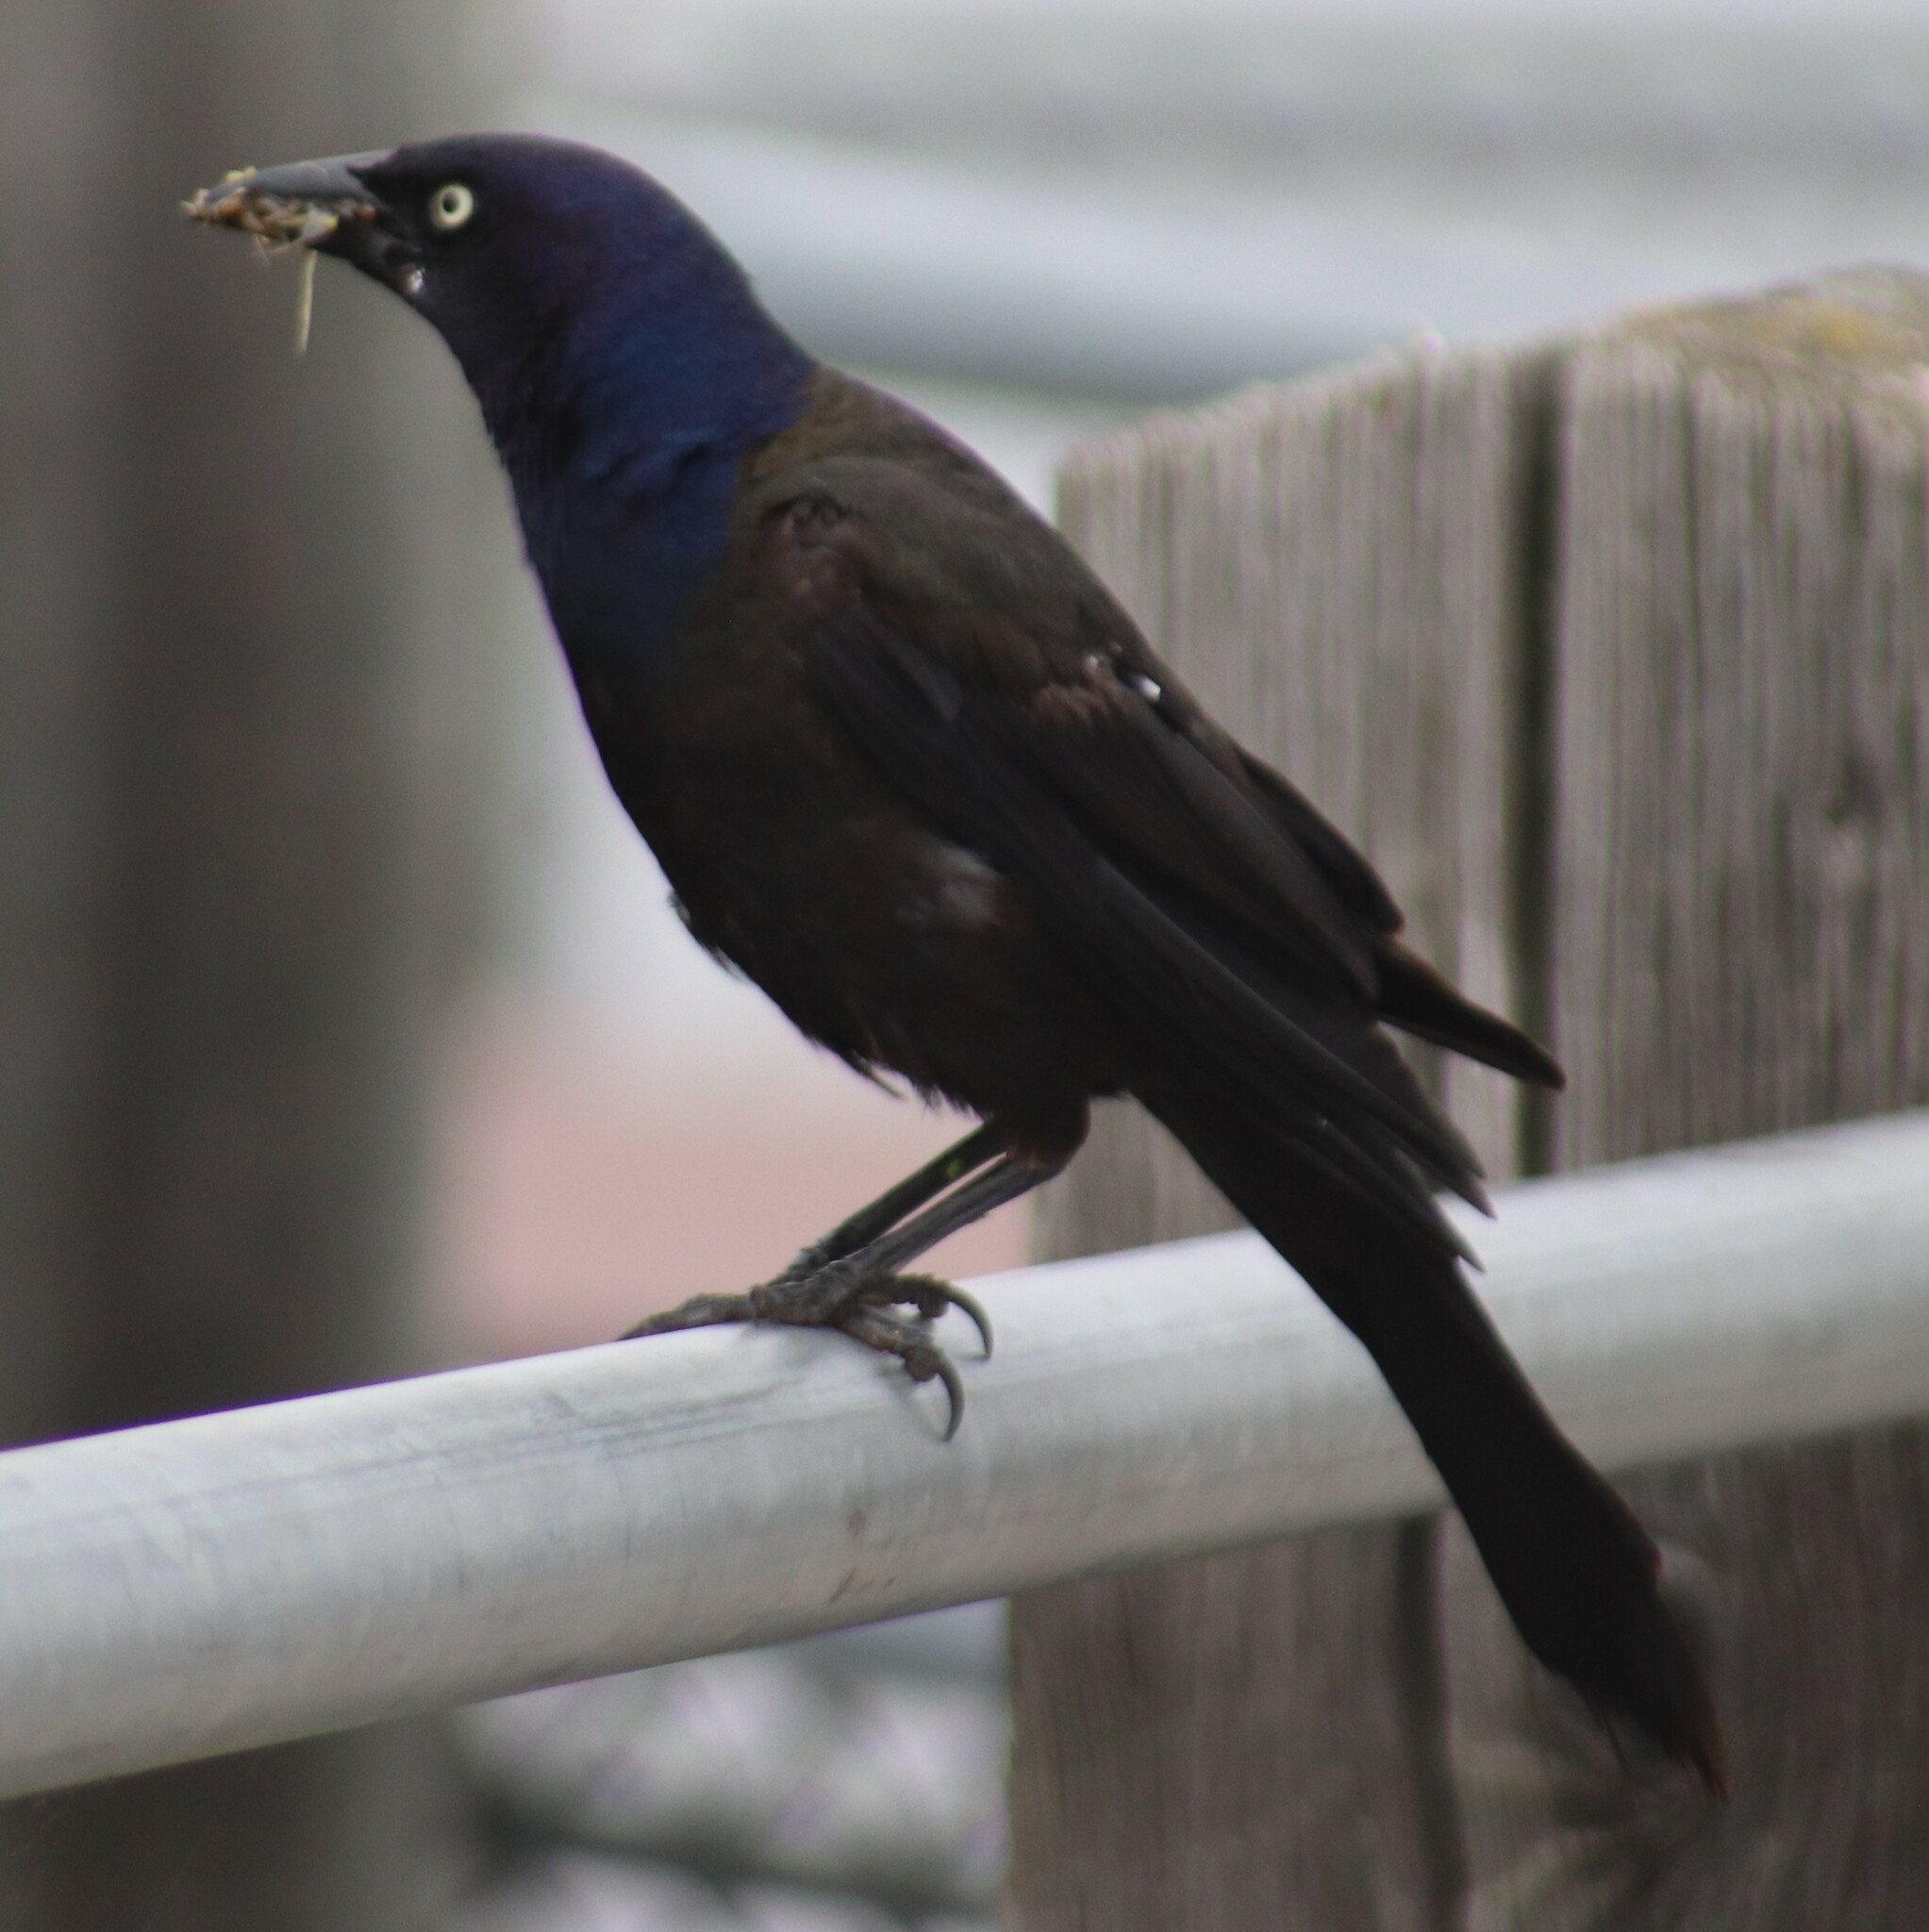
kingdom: Animalia
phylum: Chordata
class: Aves
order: Passeriformes
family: Icteridae
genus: Quiscalus
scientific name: Quiscalus quiscula
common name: Common grackle
